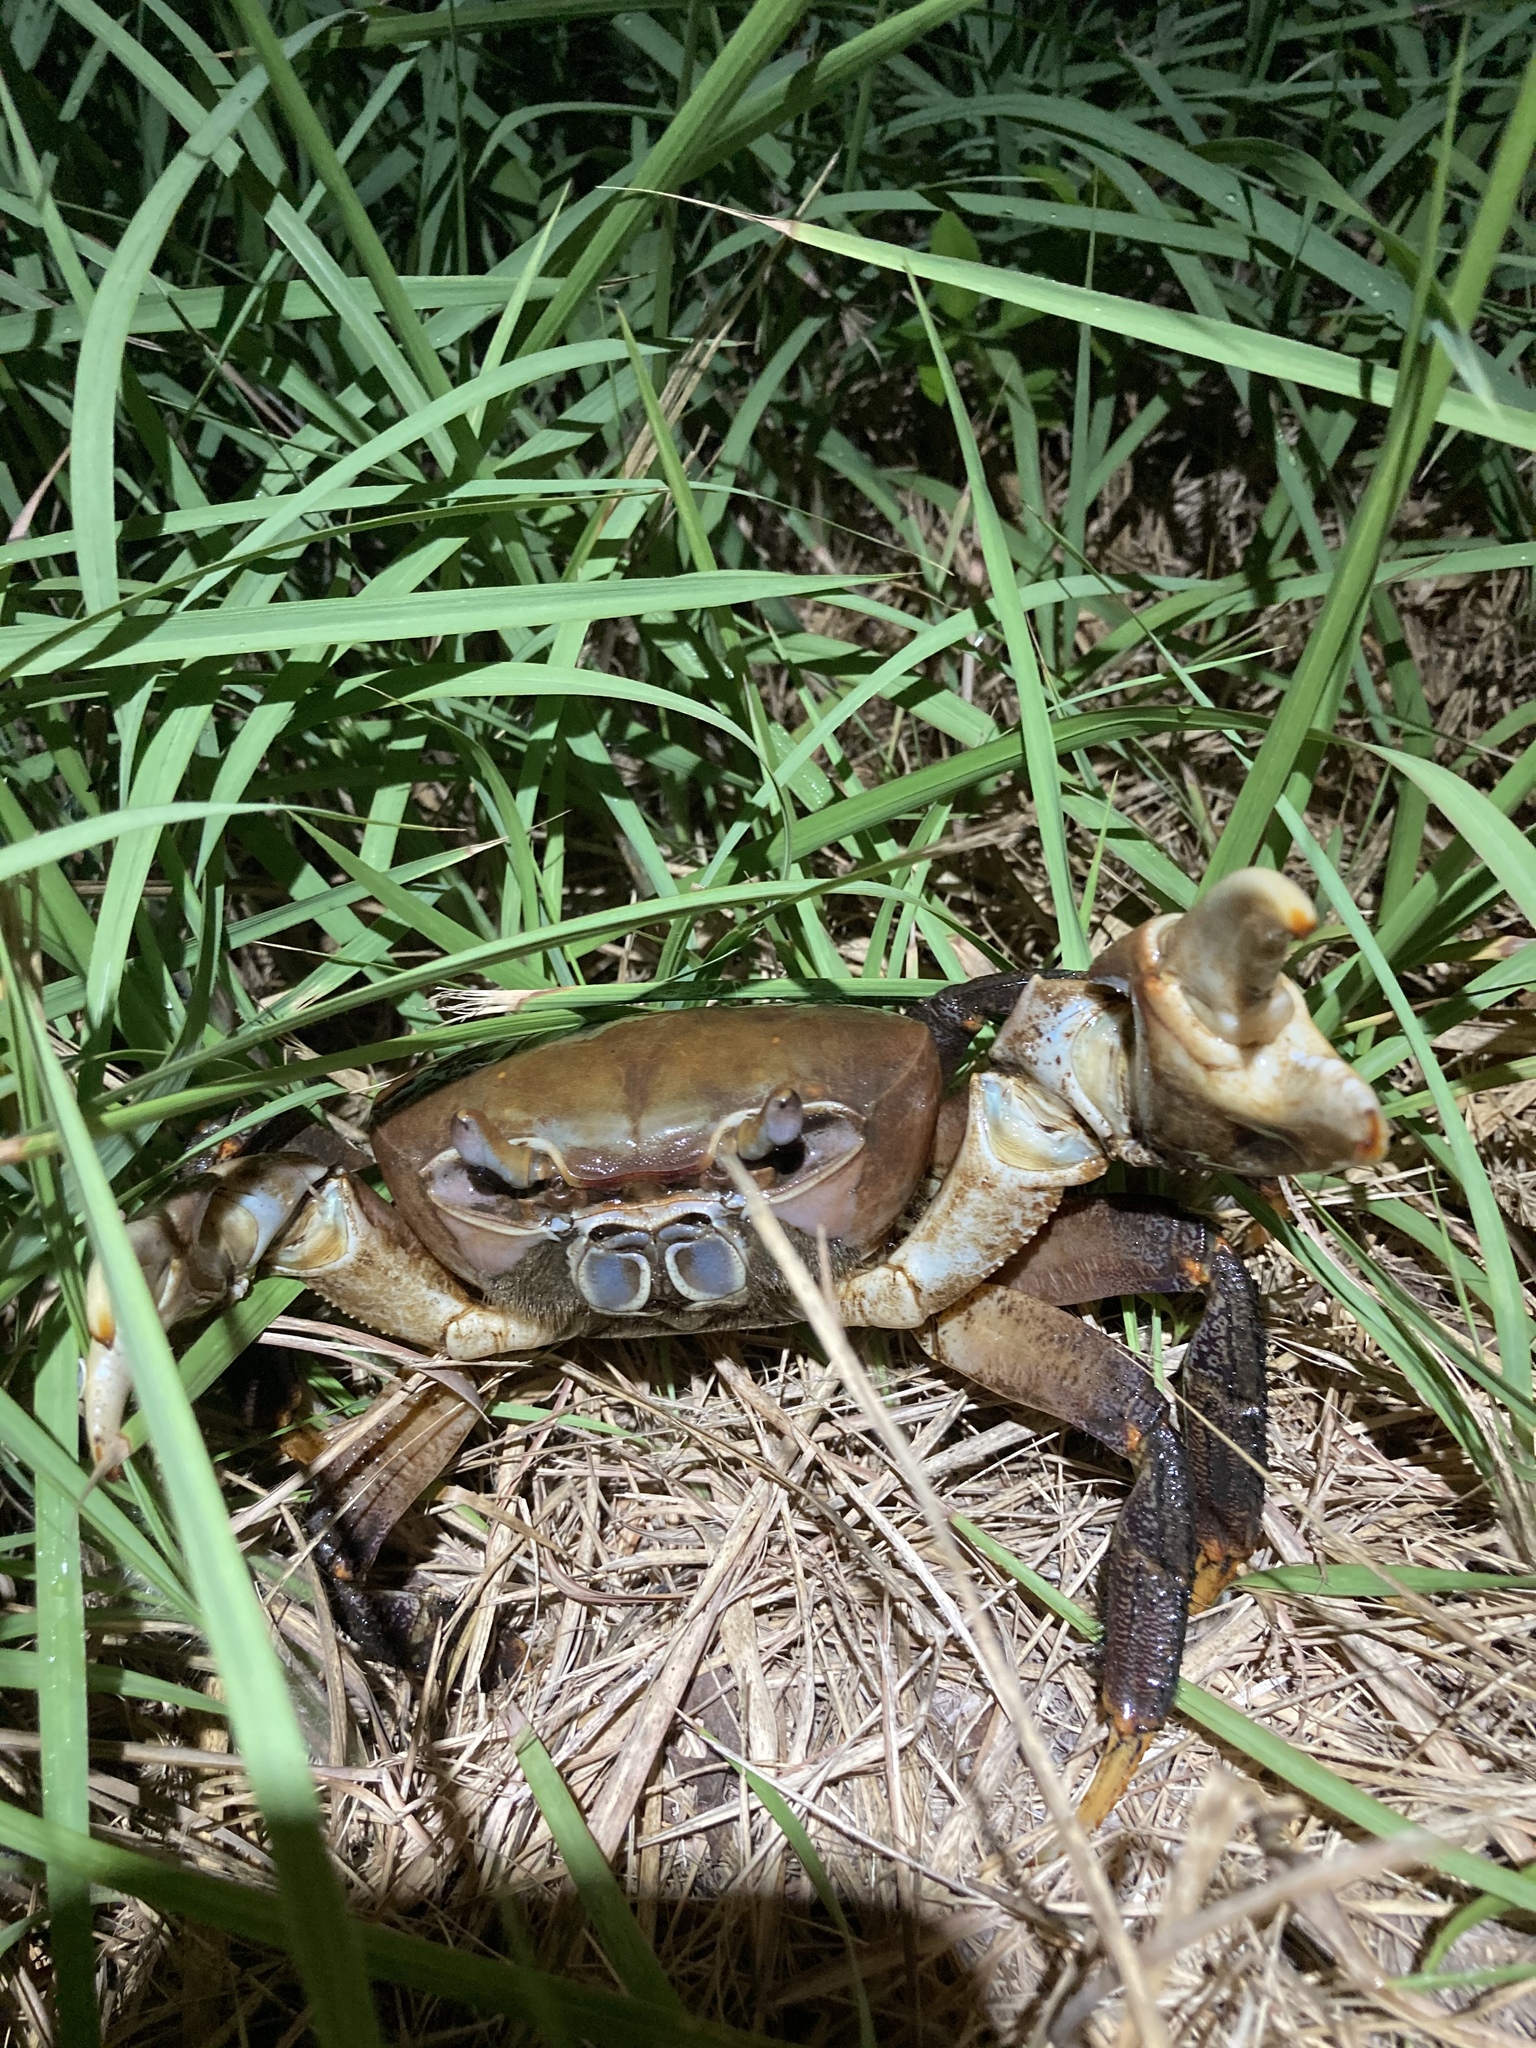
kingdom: Animalia
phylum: Arthropoda
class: Malacostraca
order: Decapoda
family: Gecarcinidae
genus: Cardisoma
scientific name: Cardisoma carnifex
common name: Brown land crab
